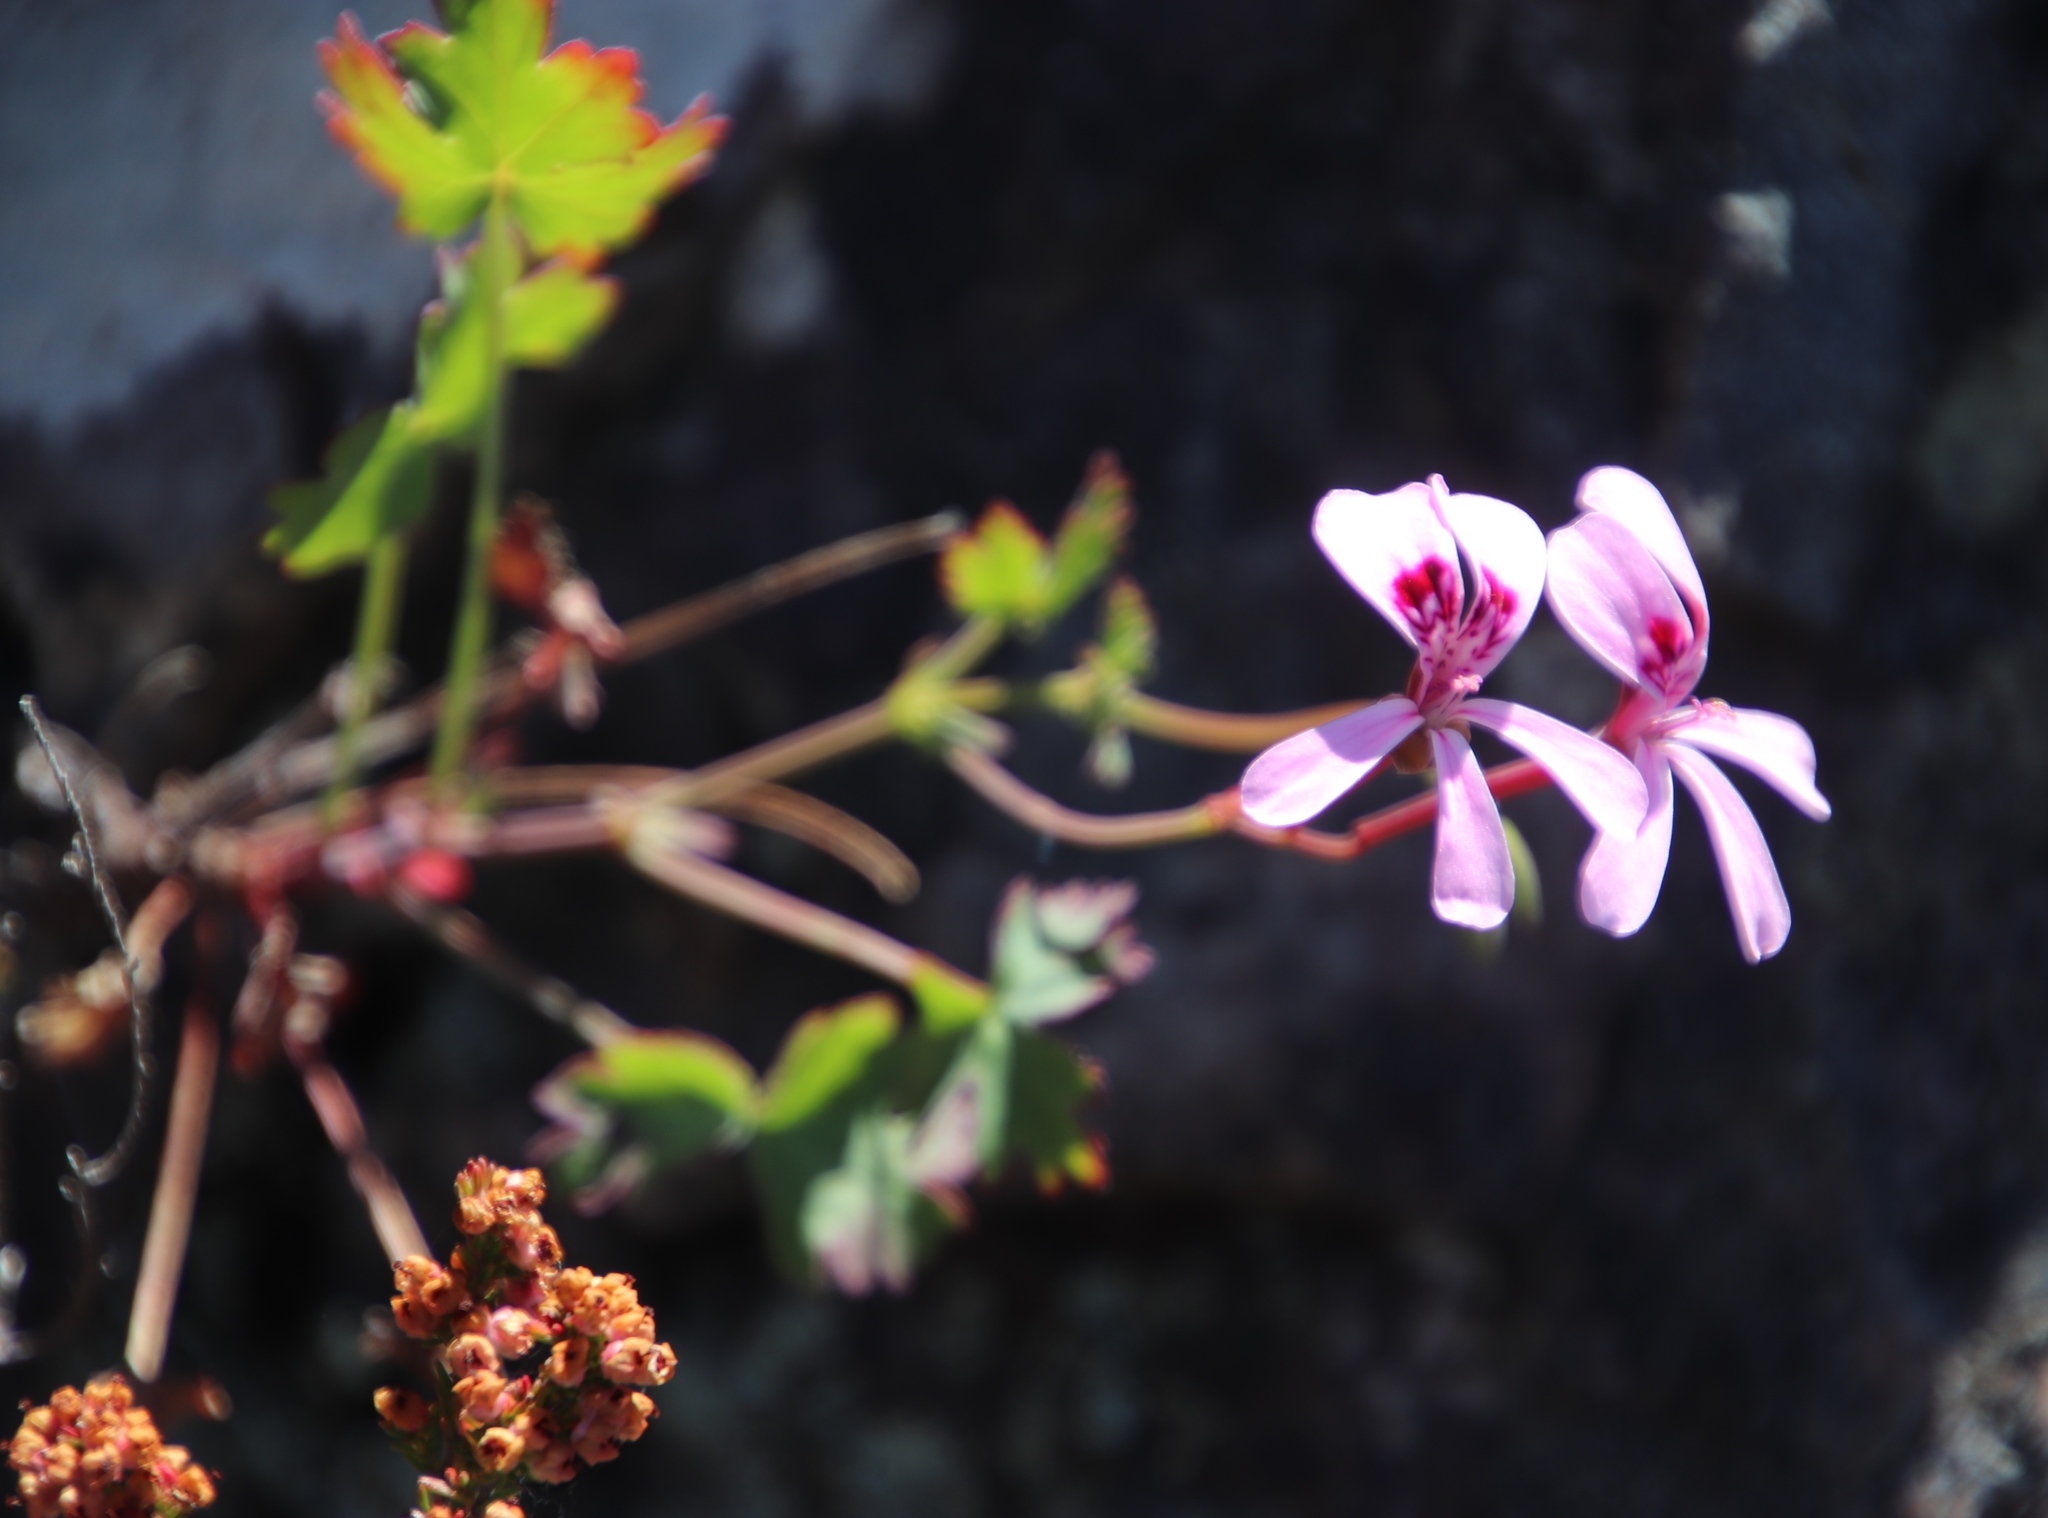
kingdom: Plantae
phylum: Tracheophyta
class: Magnoliopsida
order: Geraniales
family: Geraniaceae
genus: Pelargonium
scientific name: Pelargonium patulum
